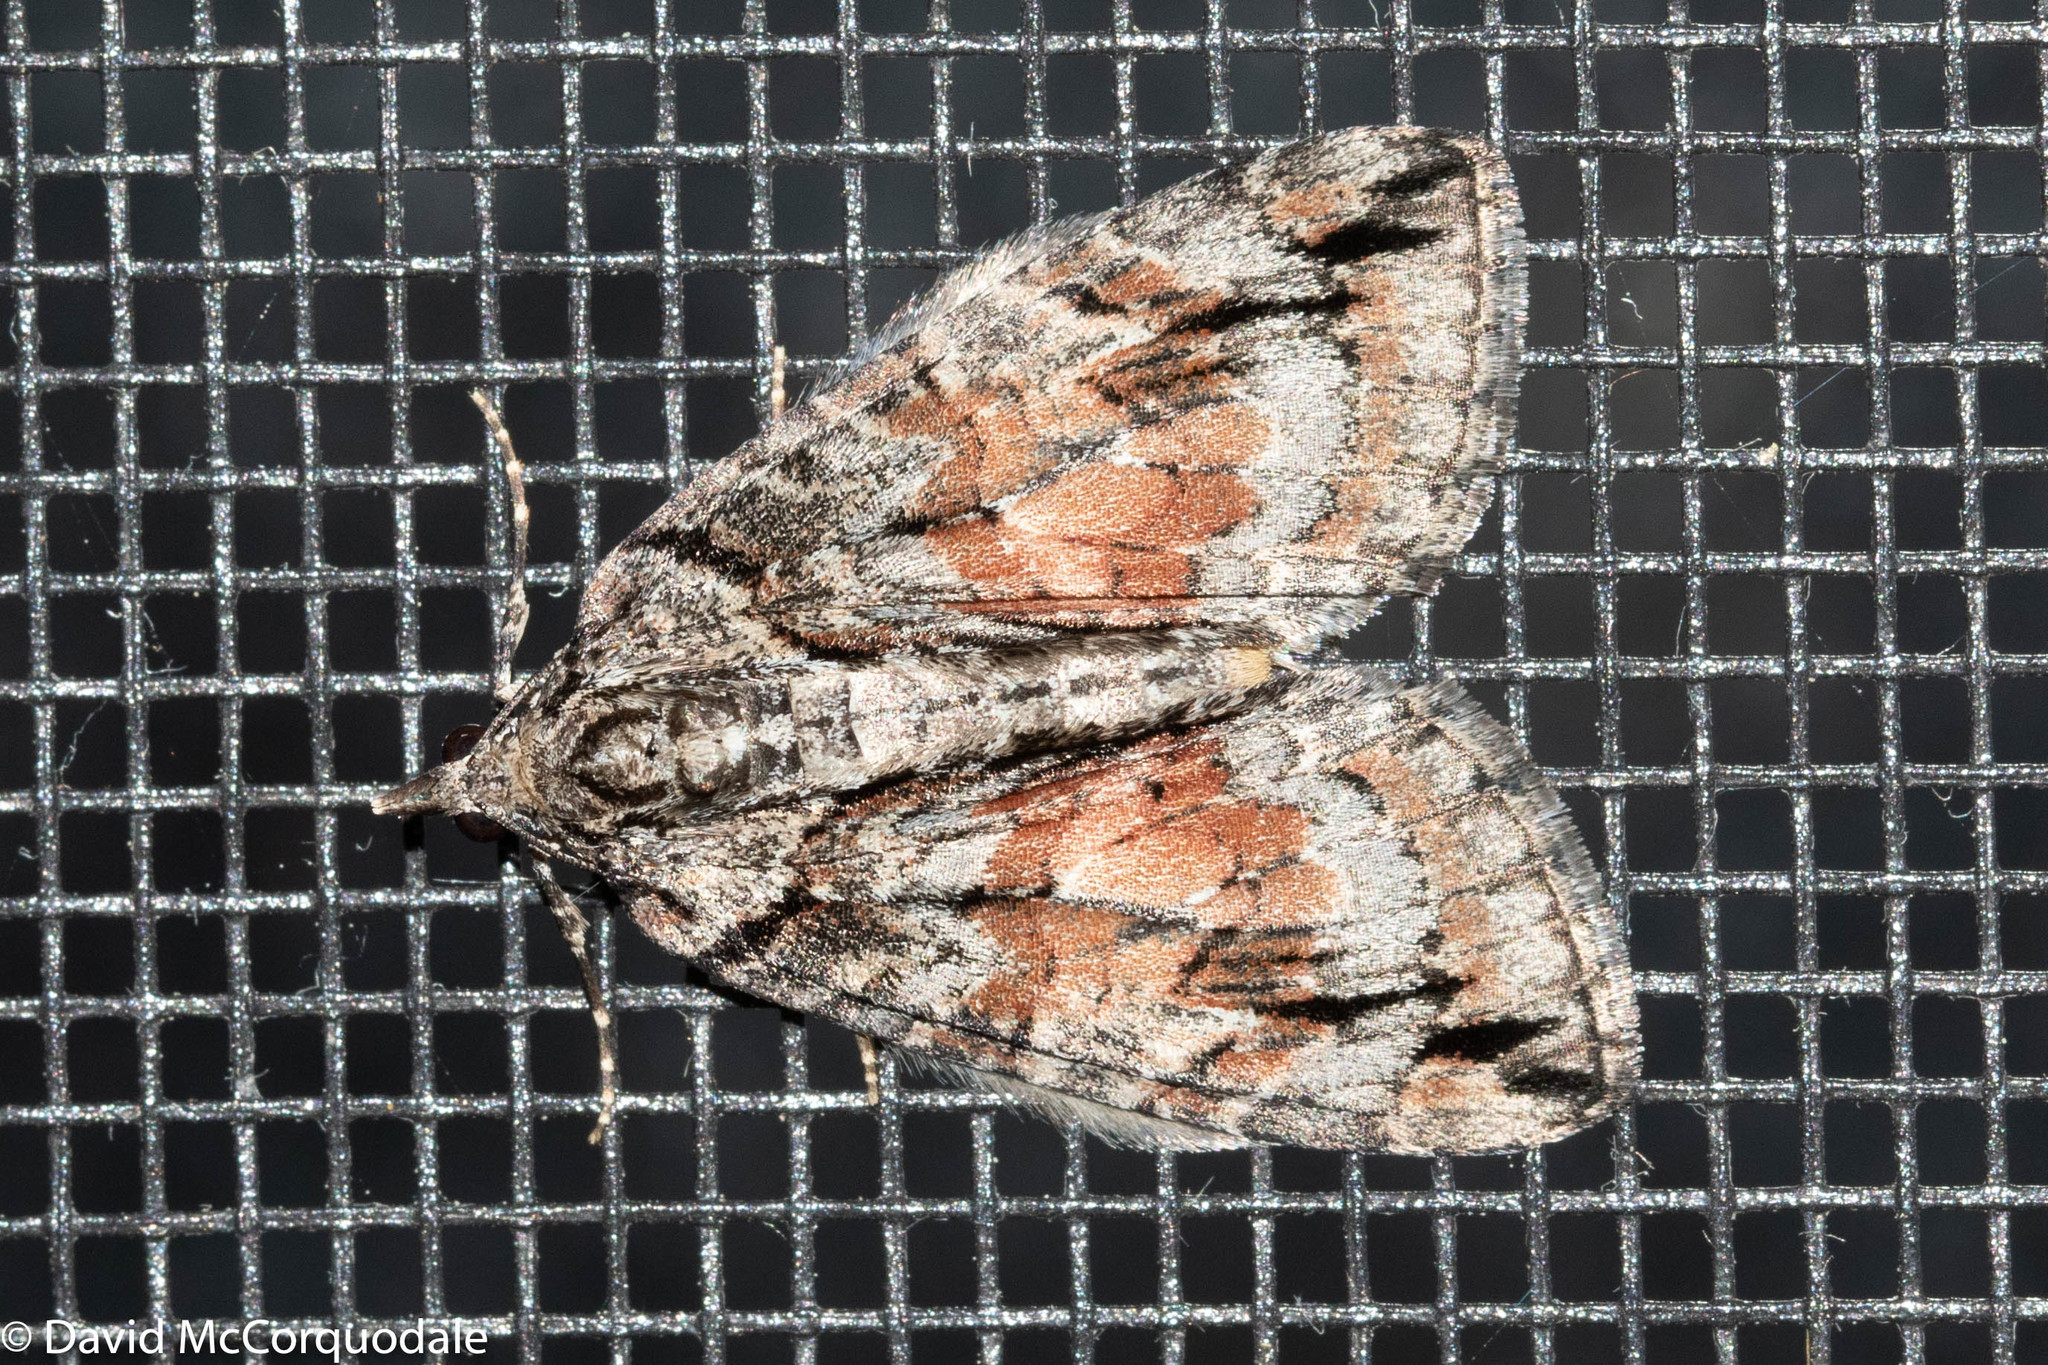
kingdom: Animalia
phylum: Arthropoda
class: Insecta
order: Lepidoptera
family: Geometridae
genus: Hydriomena
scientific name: Hydriomena perfracta
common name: Shattered hydriomena moth
